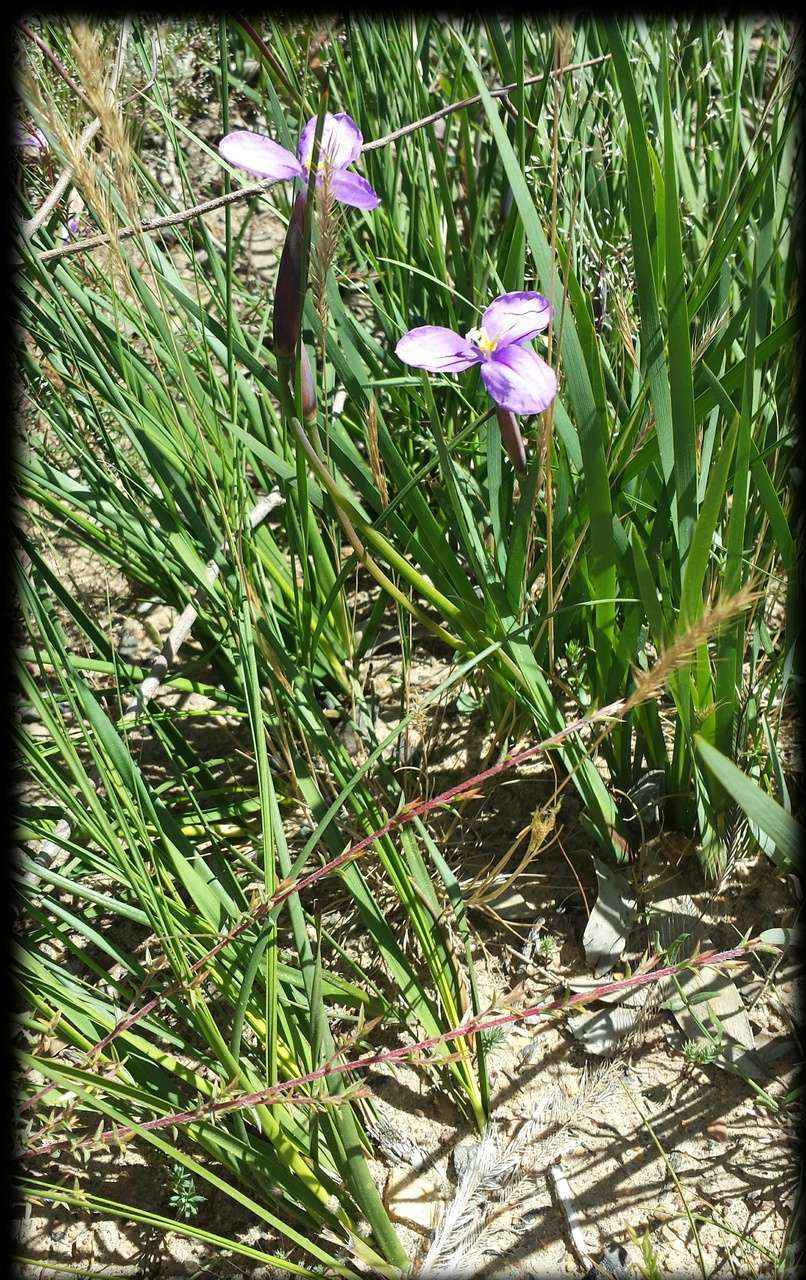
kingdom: Plantae
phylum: Tracheophyta
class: Liliopsida
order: Asparagales
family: Iridaceae
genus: Patersonia
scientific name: Patersonia occidentalis
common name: Long purple-flag
